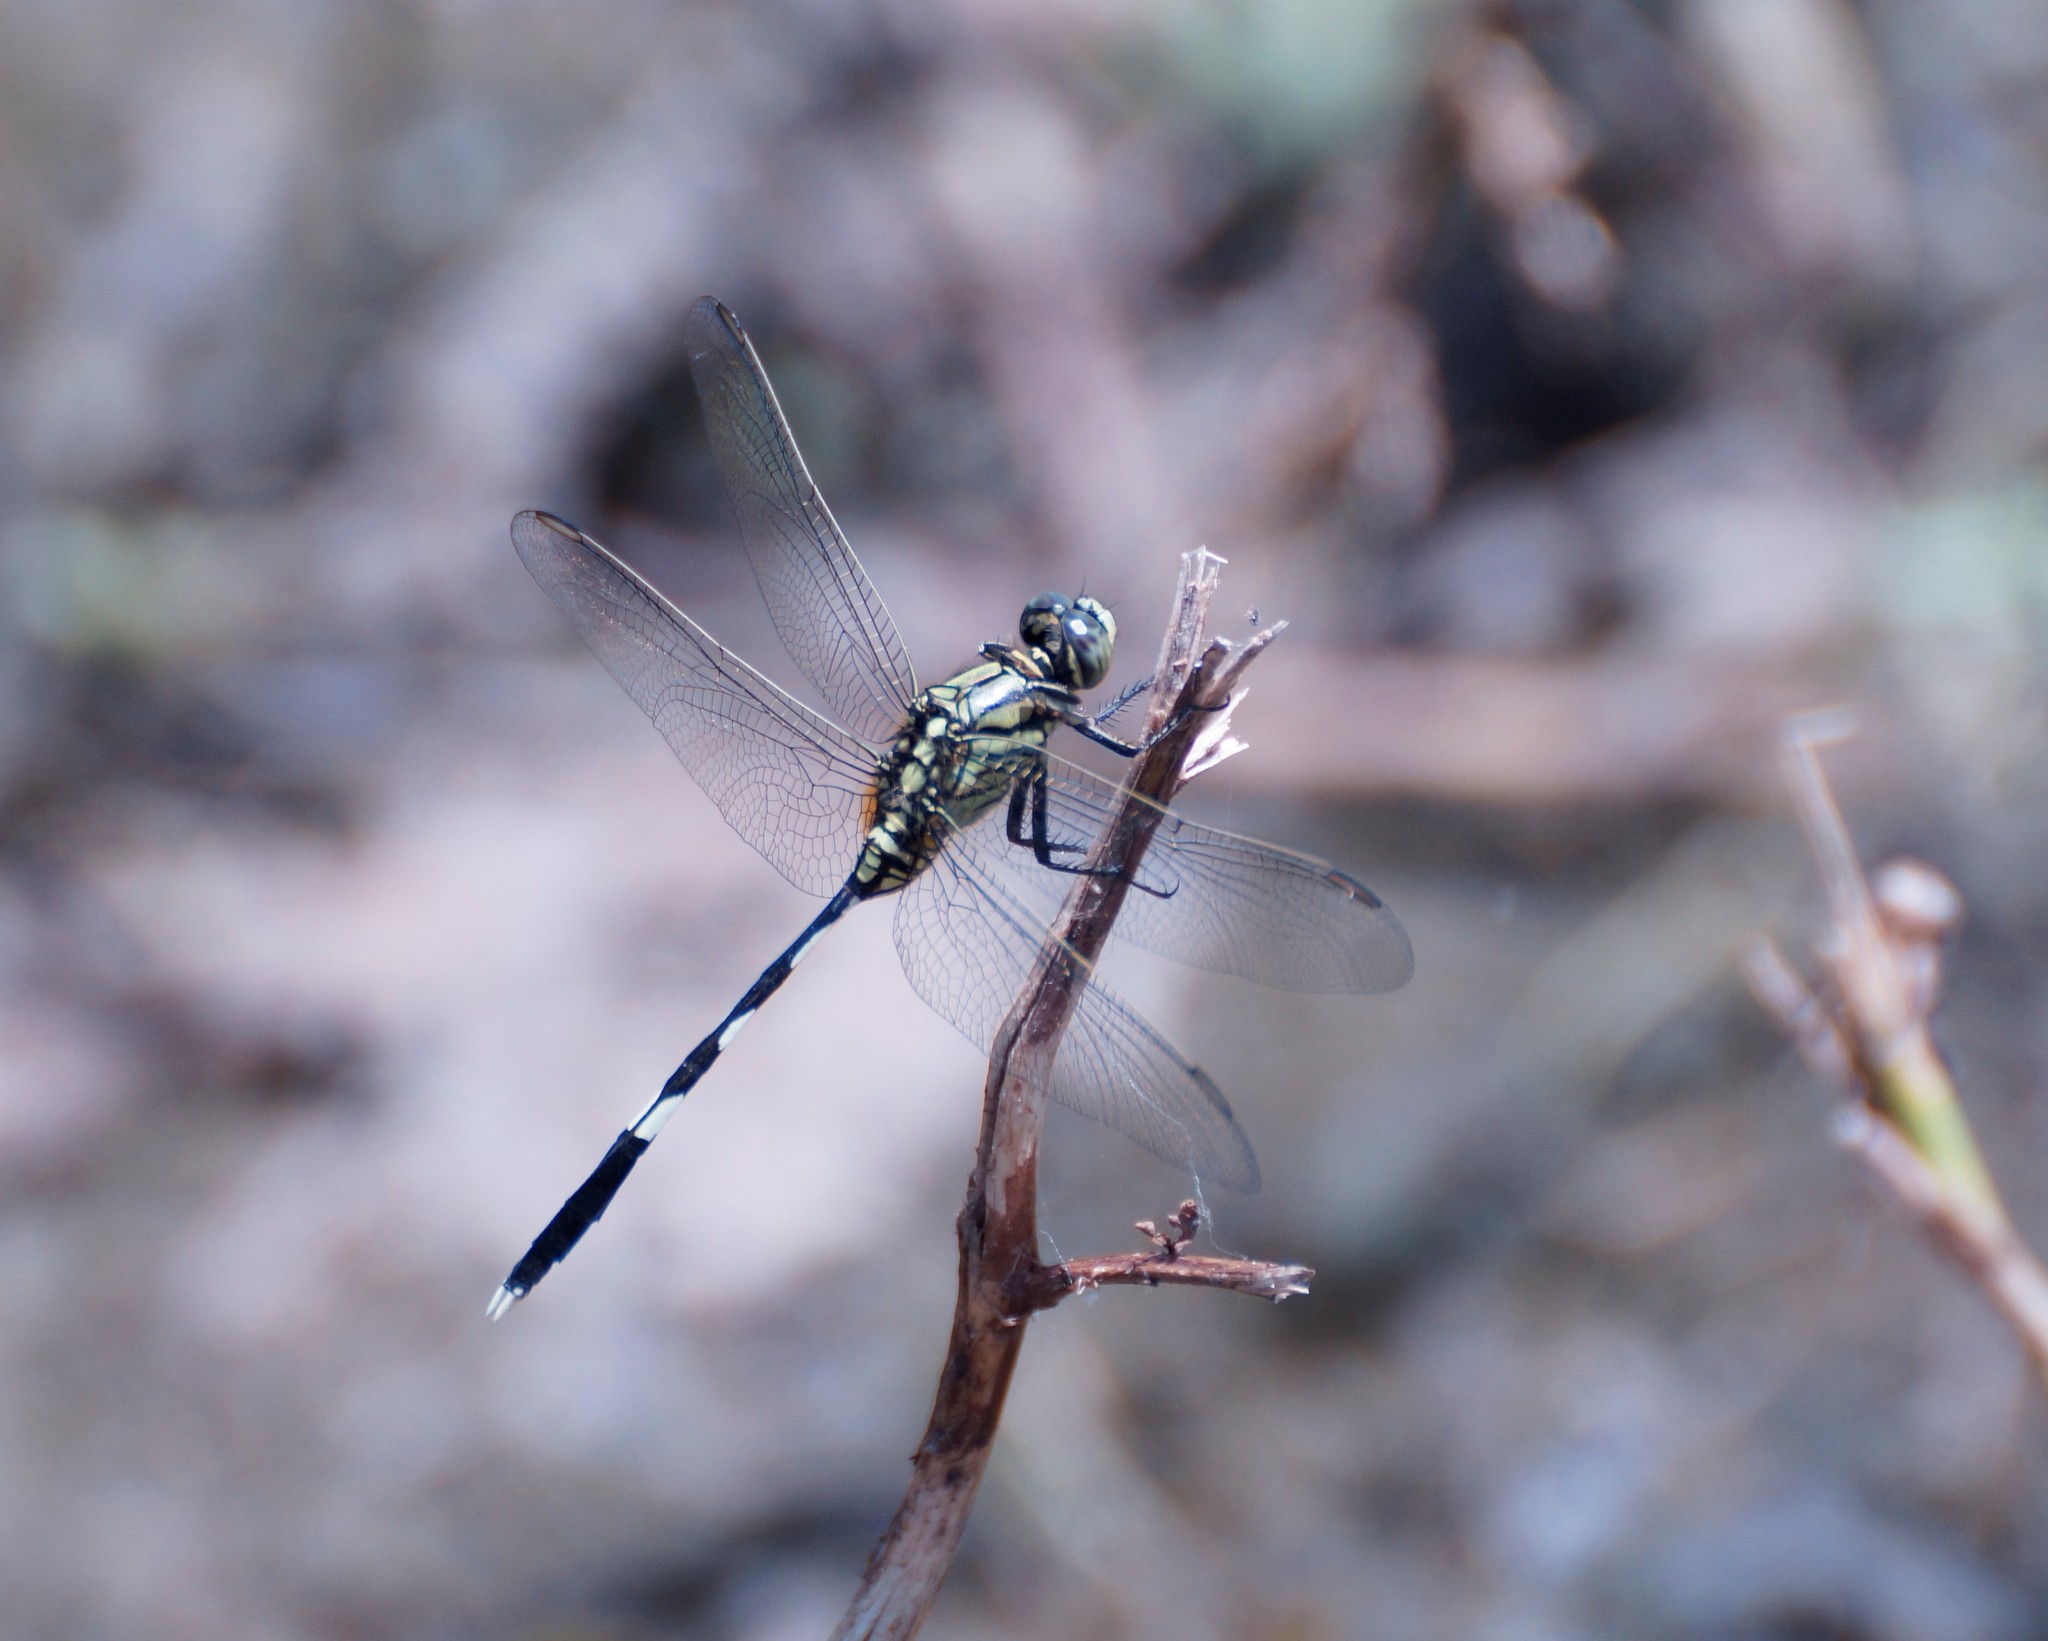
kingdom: Animalia
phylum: Arthropoda
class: Insecta
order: Odonata
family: Libellulidae
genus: Orthetrum
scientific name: Orthetrum sabina
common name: Slender skimmer
